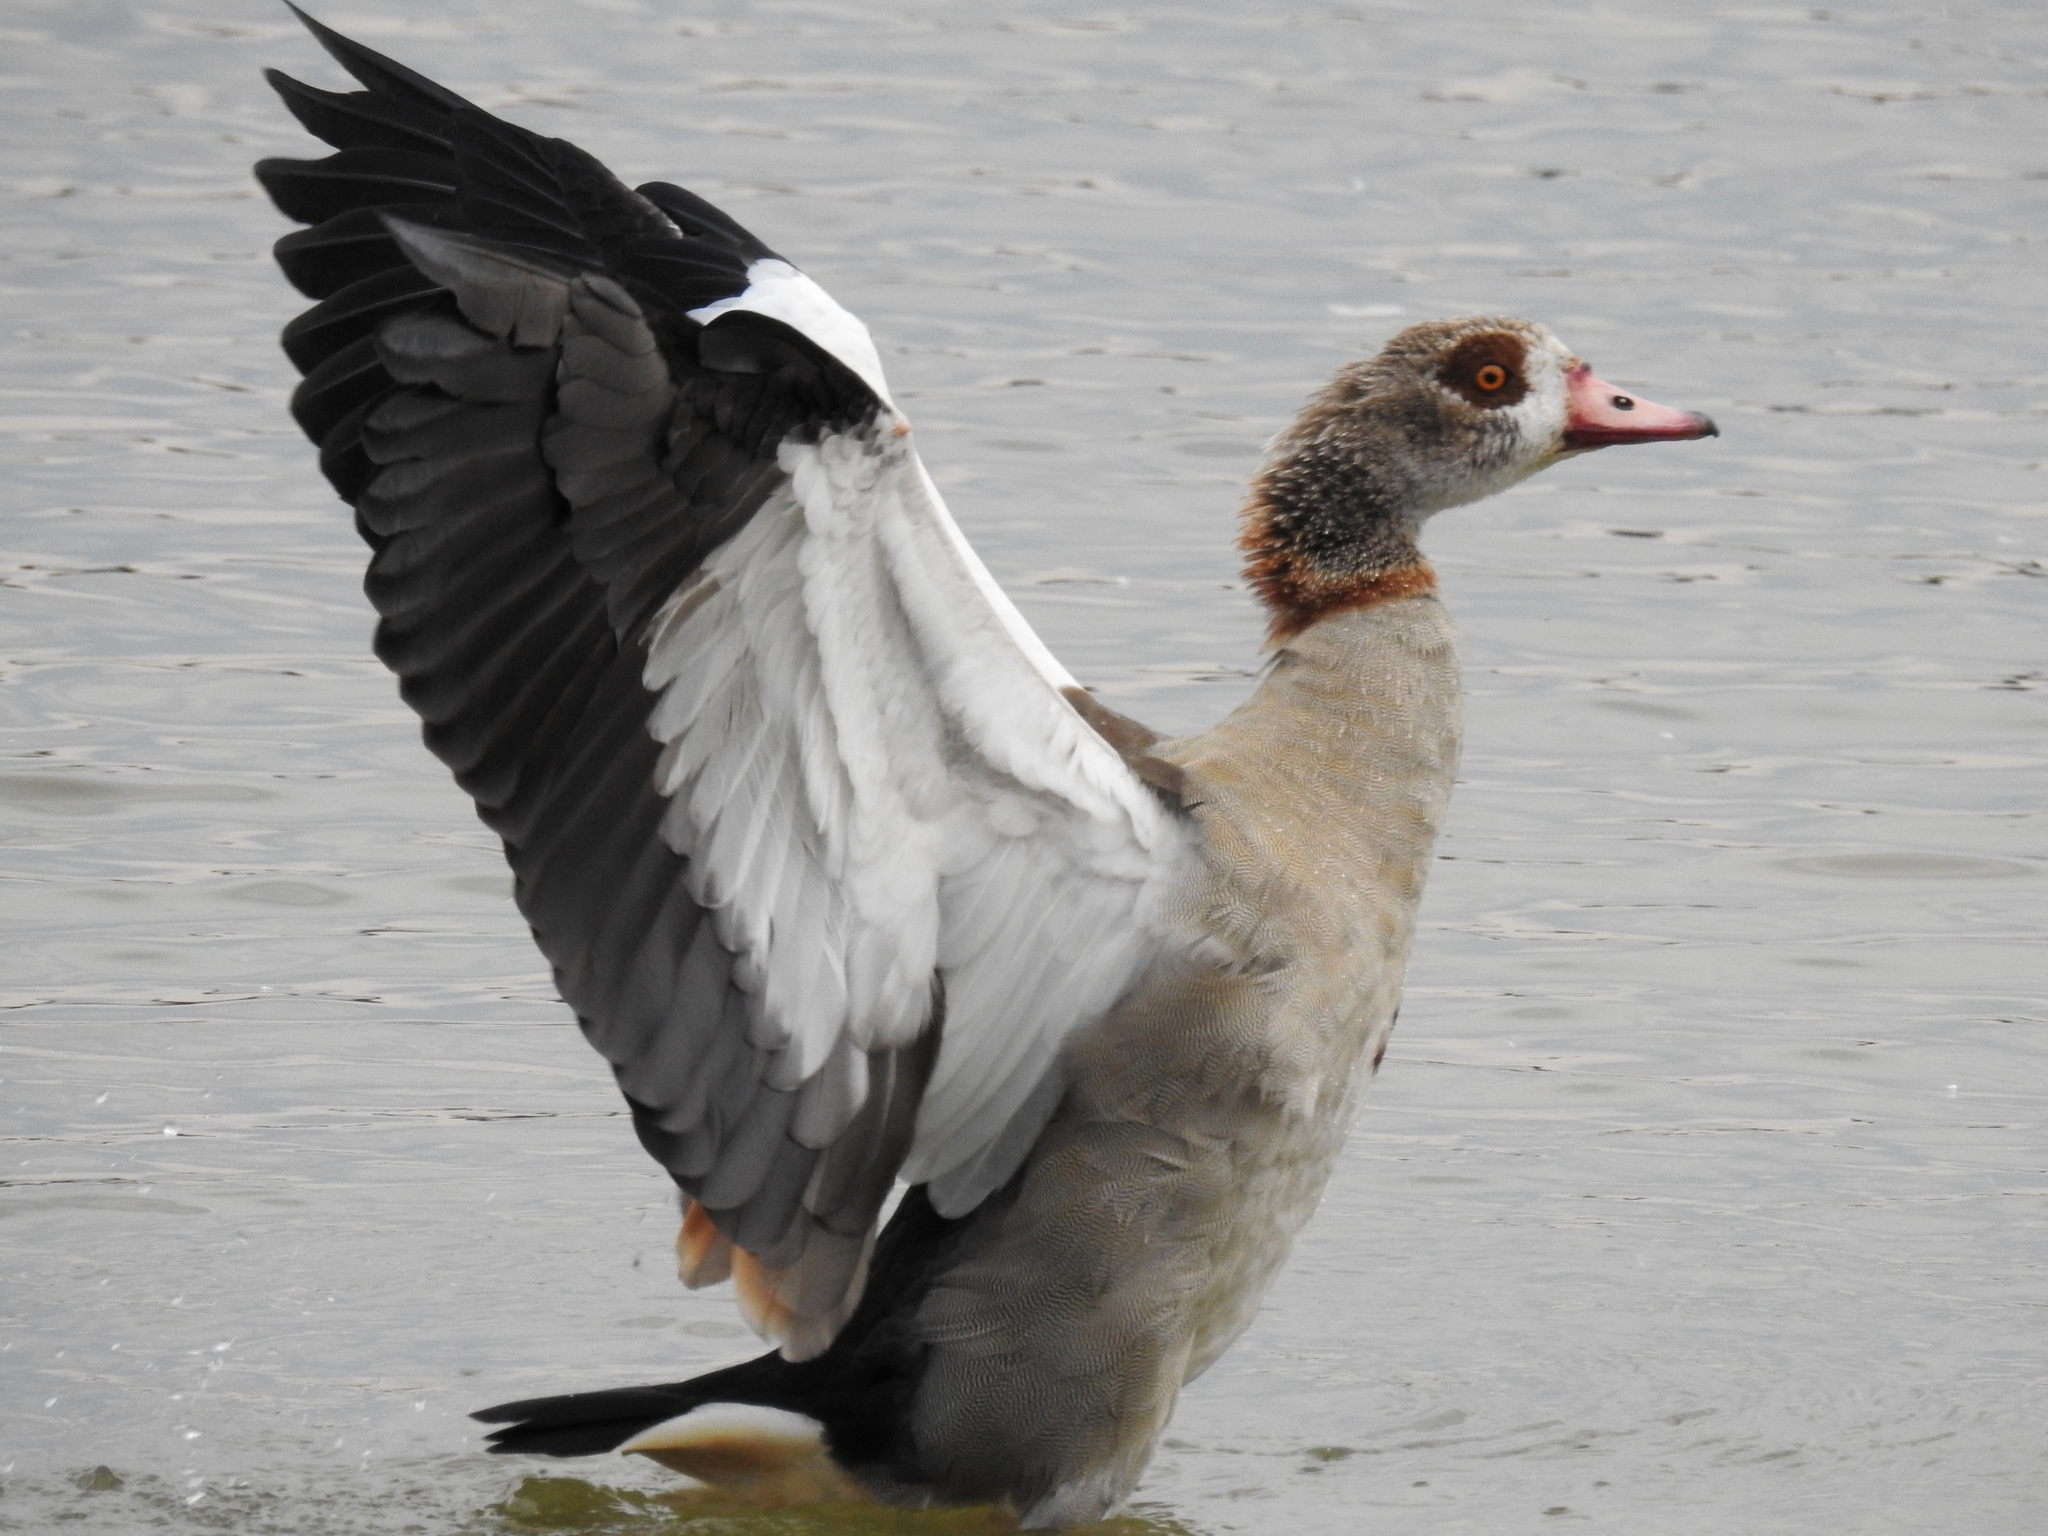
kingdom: Animalia
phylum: Chordata
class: Aves
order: Anseriformes
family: Anatidae
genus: Alopochen
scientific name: Alopochen aegyptiaca
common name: Egyptian goose
